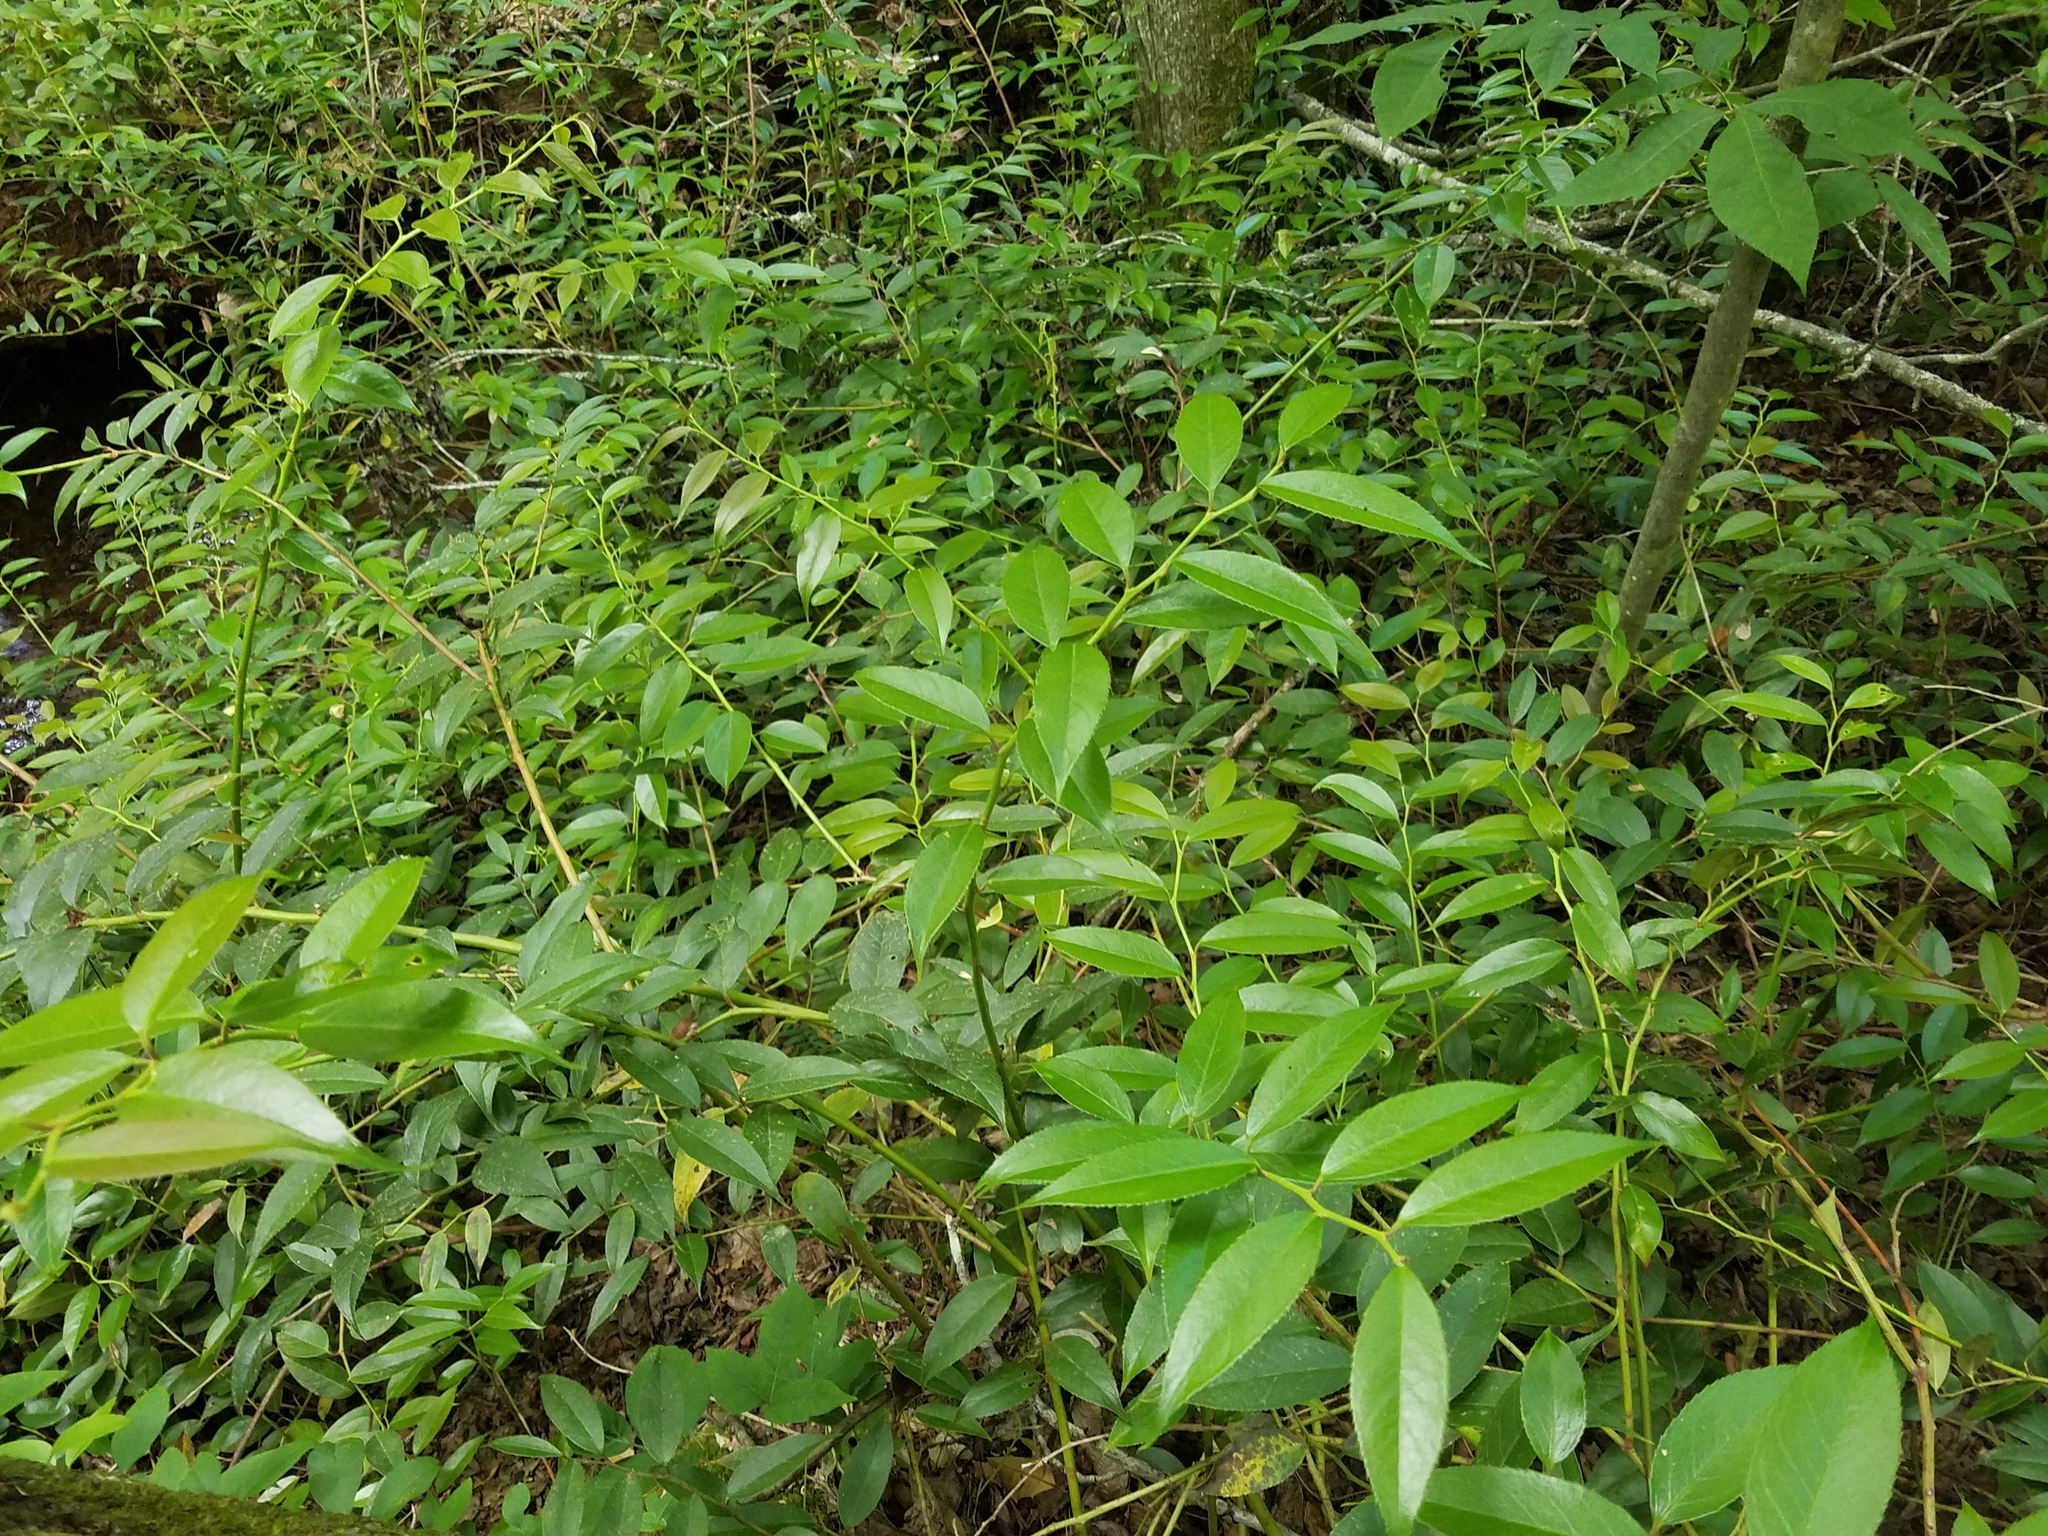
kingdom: Plantae
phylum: Tracheophyta
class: Magnoliopsida
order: Ericales
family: Ericaceae
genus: Leucothoe
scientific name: Leucothoe fontanesiana
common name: Fetterbush
